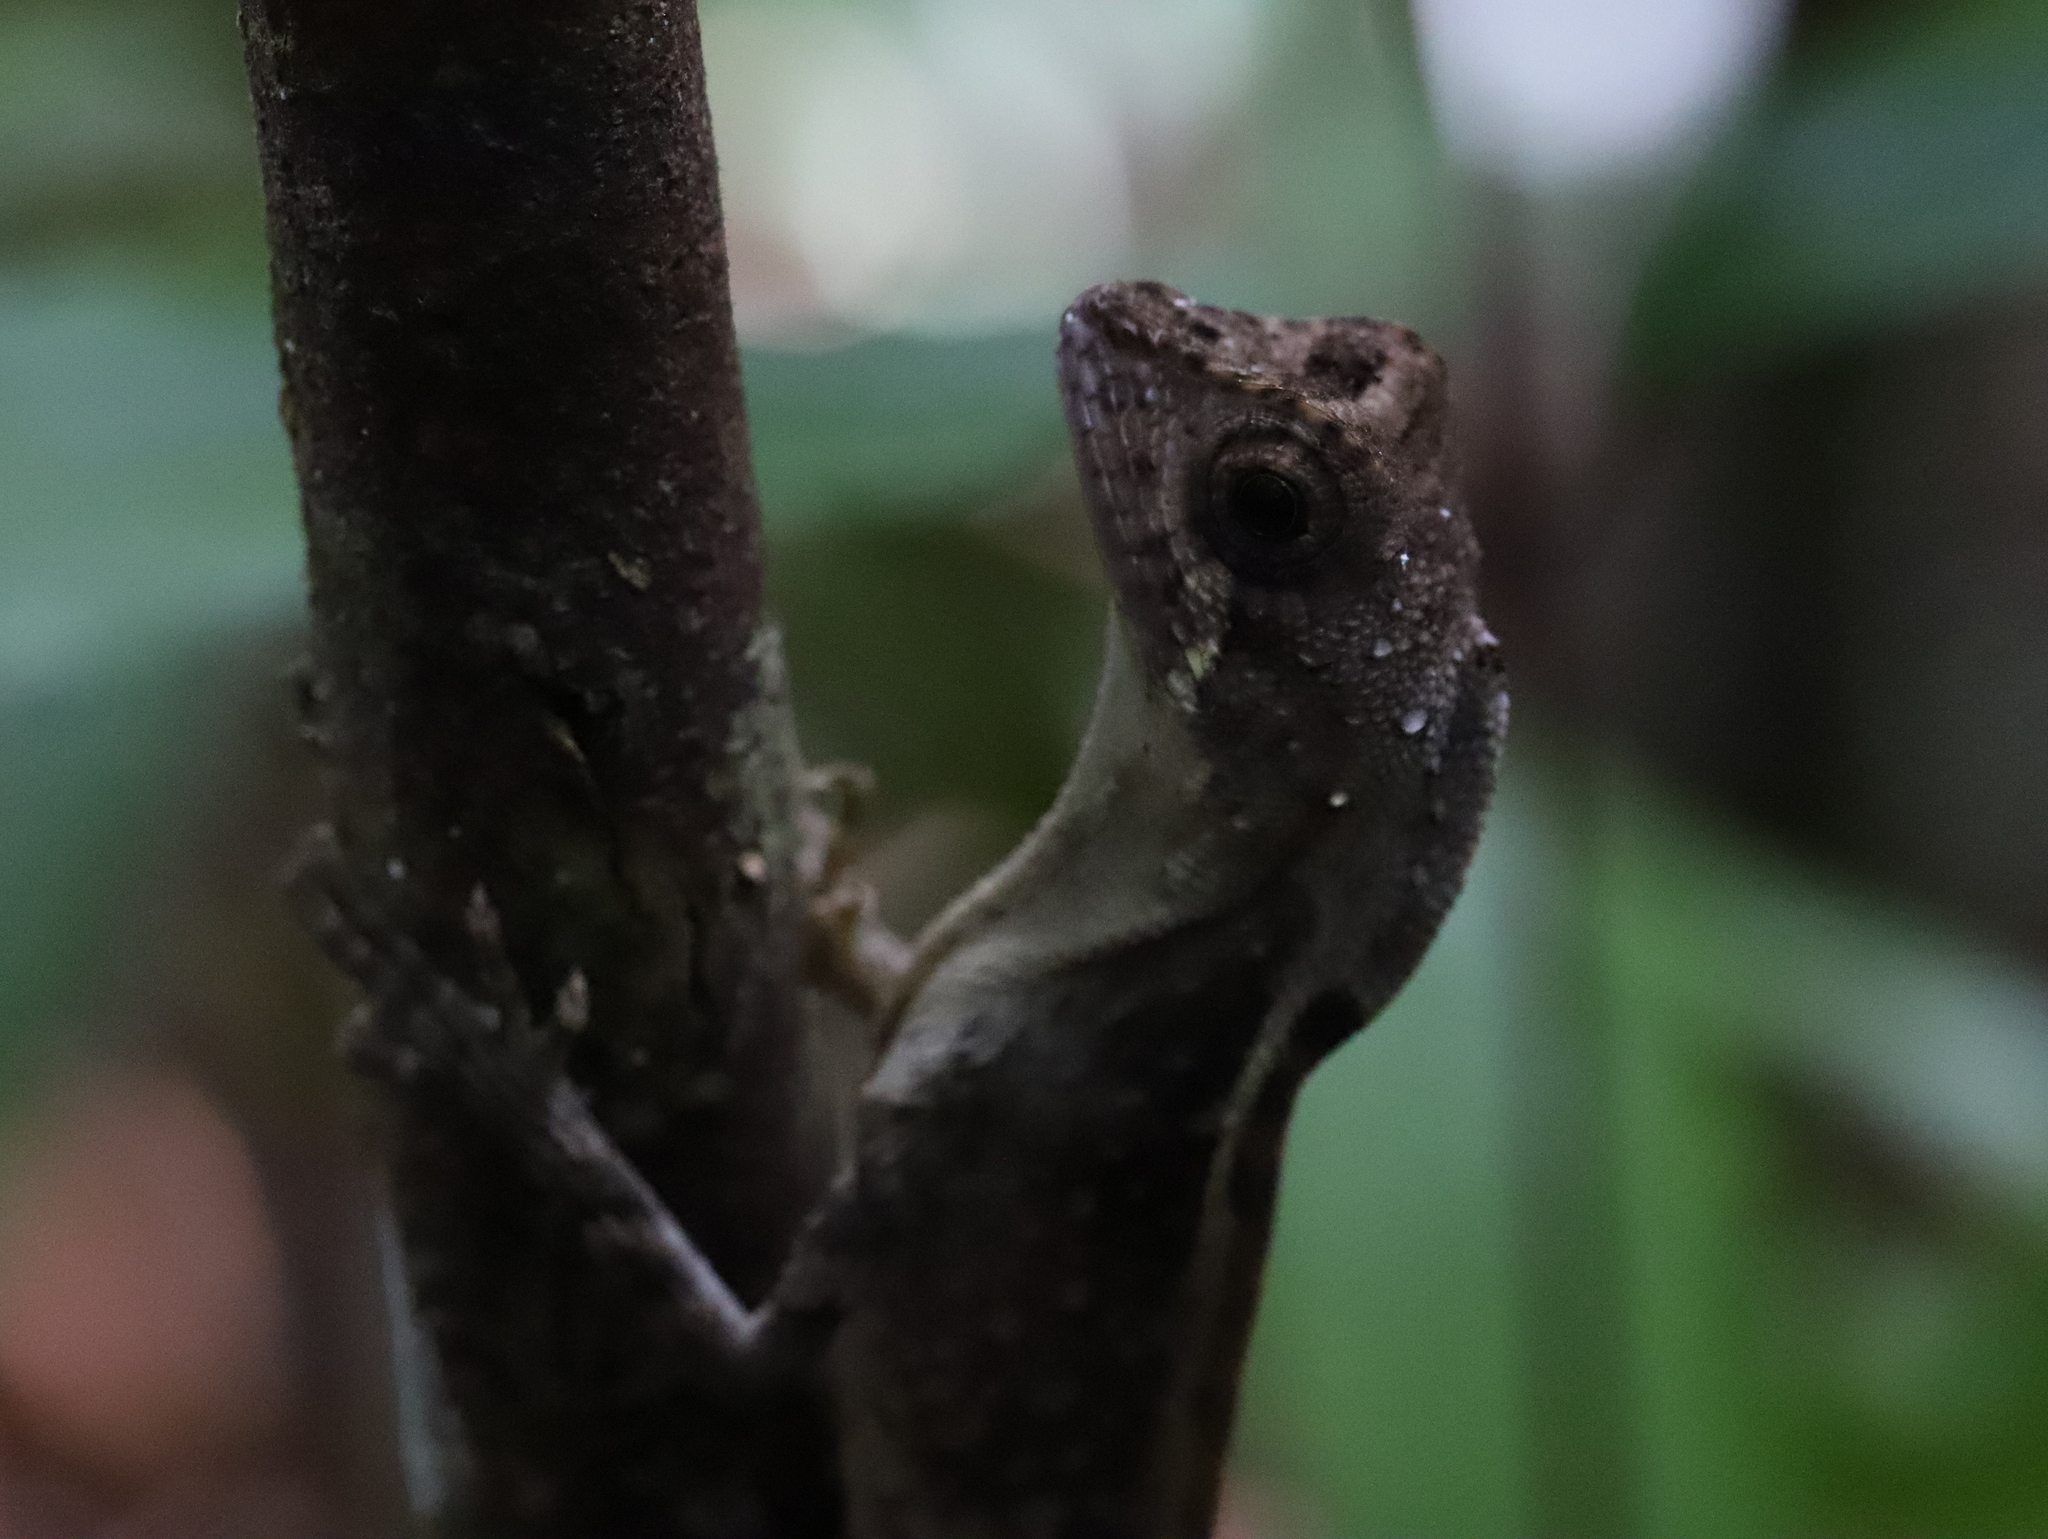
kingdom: Animalia
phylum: Chordata
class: Squamata
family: Agamidae
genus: Otocryptis
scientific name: Otocryptis wiegmanni
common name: Wiegmann's agama
